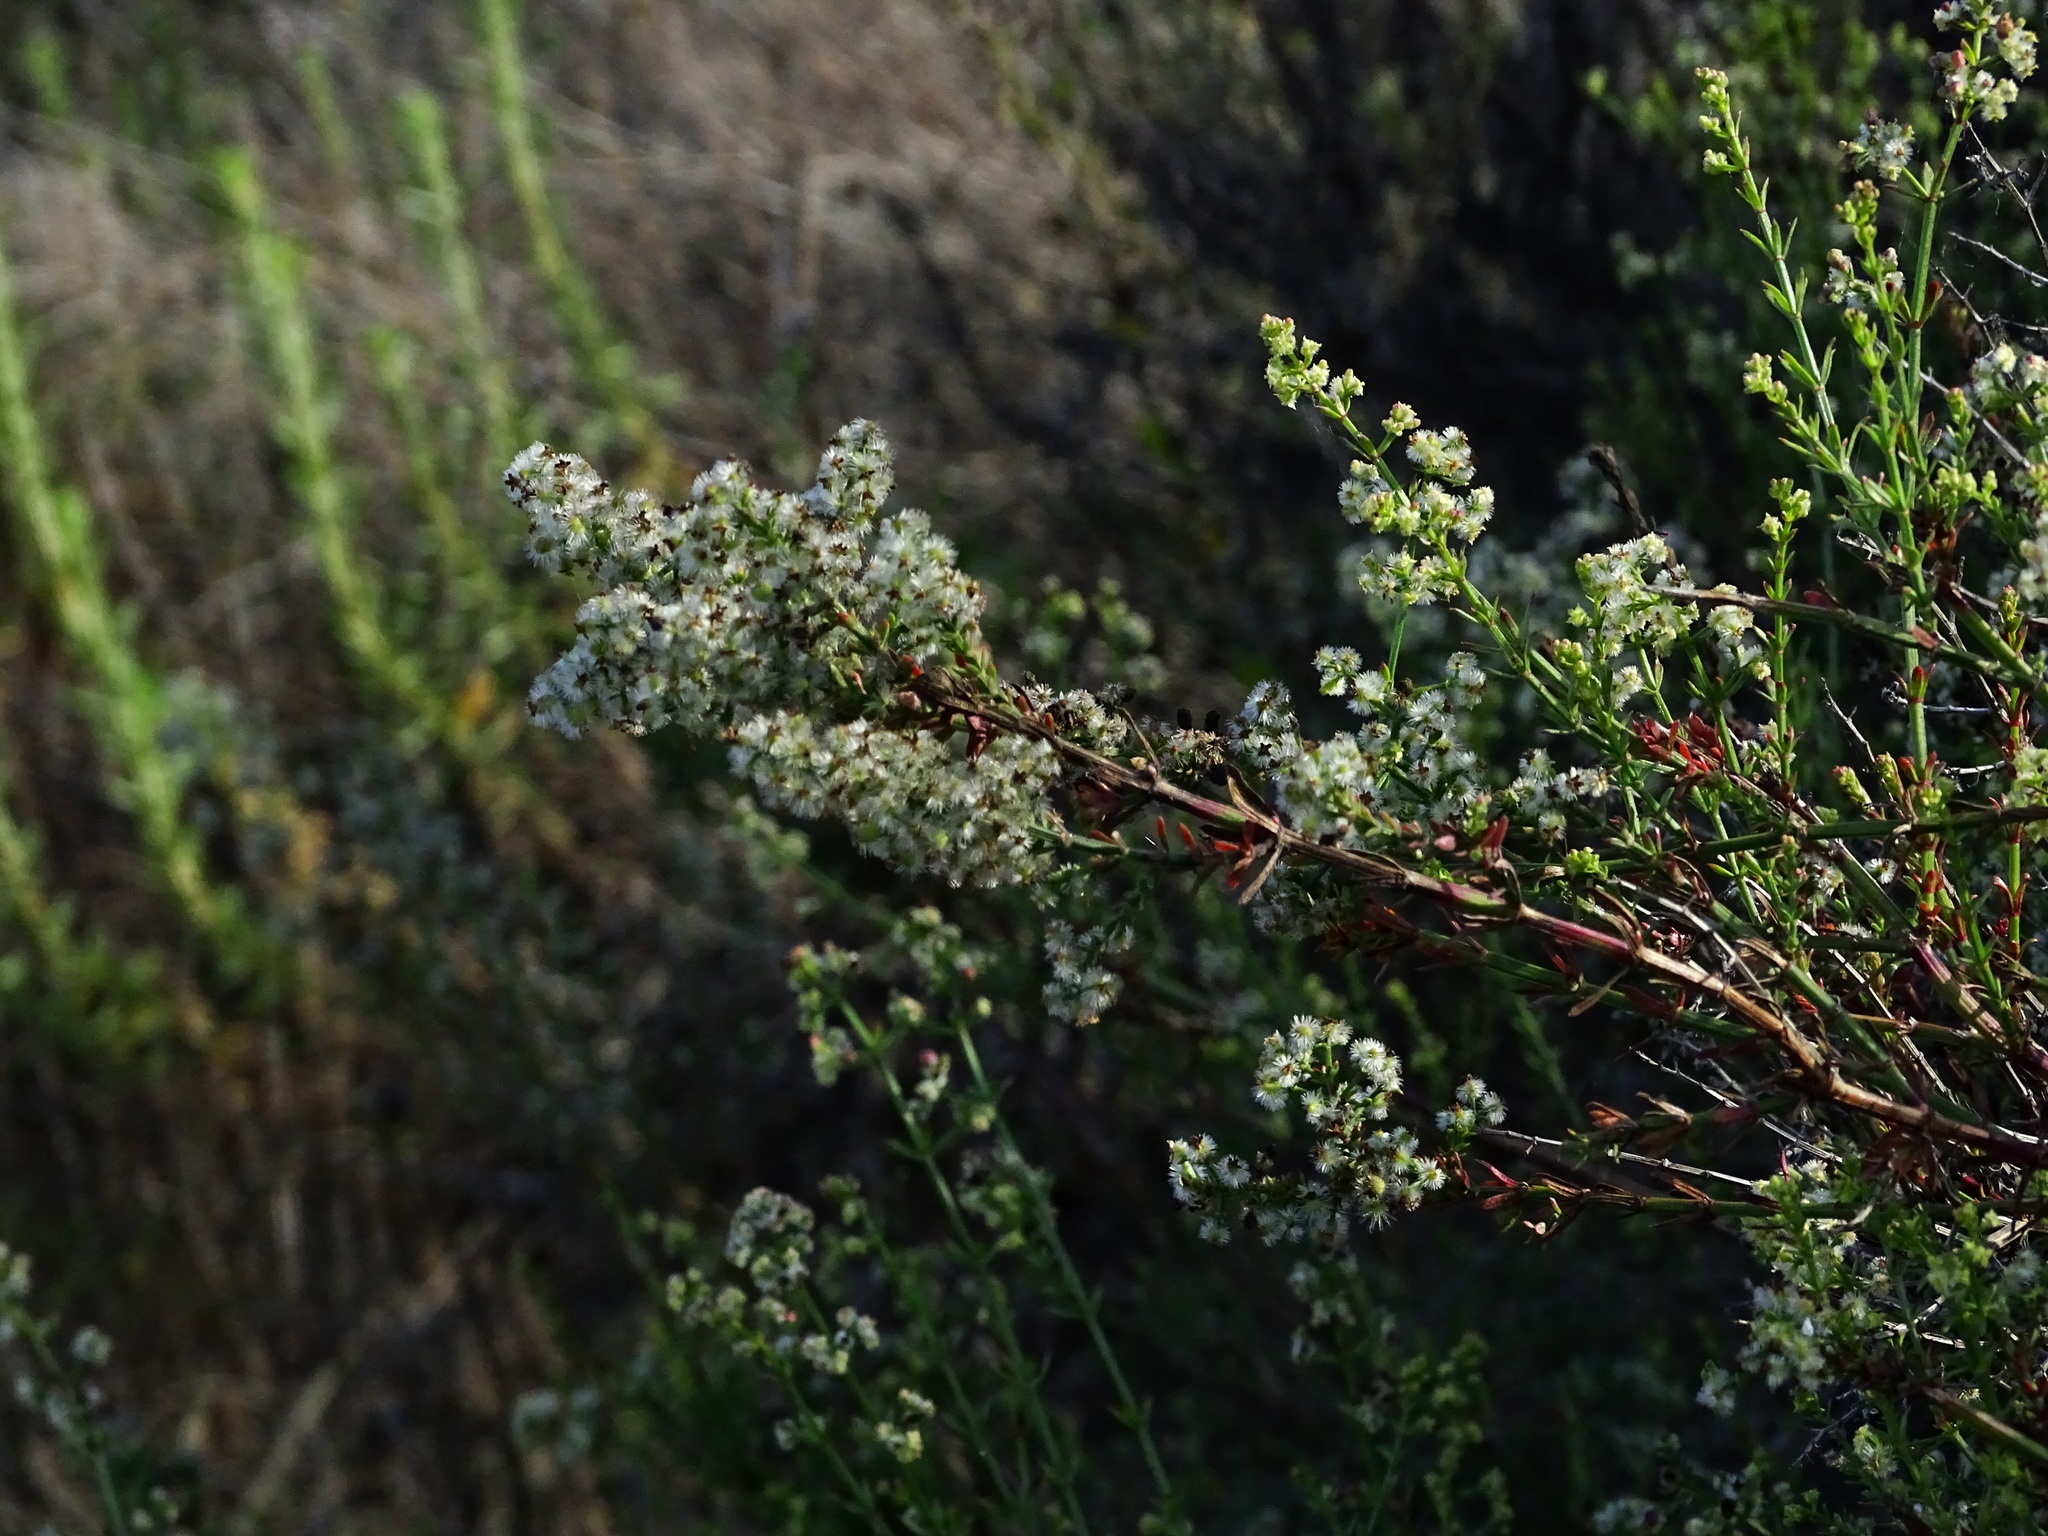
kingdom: Plantae
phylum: Tracheophyta
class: Magnoliopsida
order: Rosales
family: Rosaceae
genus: Adenostoma
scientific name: Adenostoma fasciculatum
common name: Chamise
